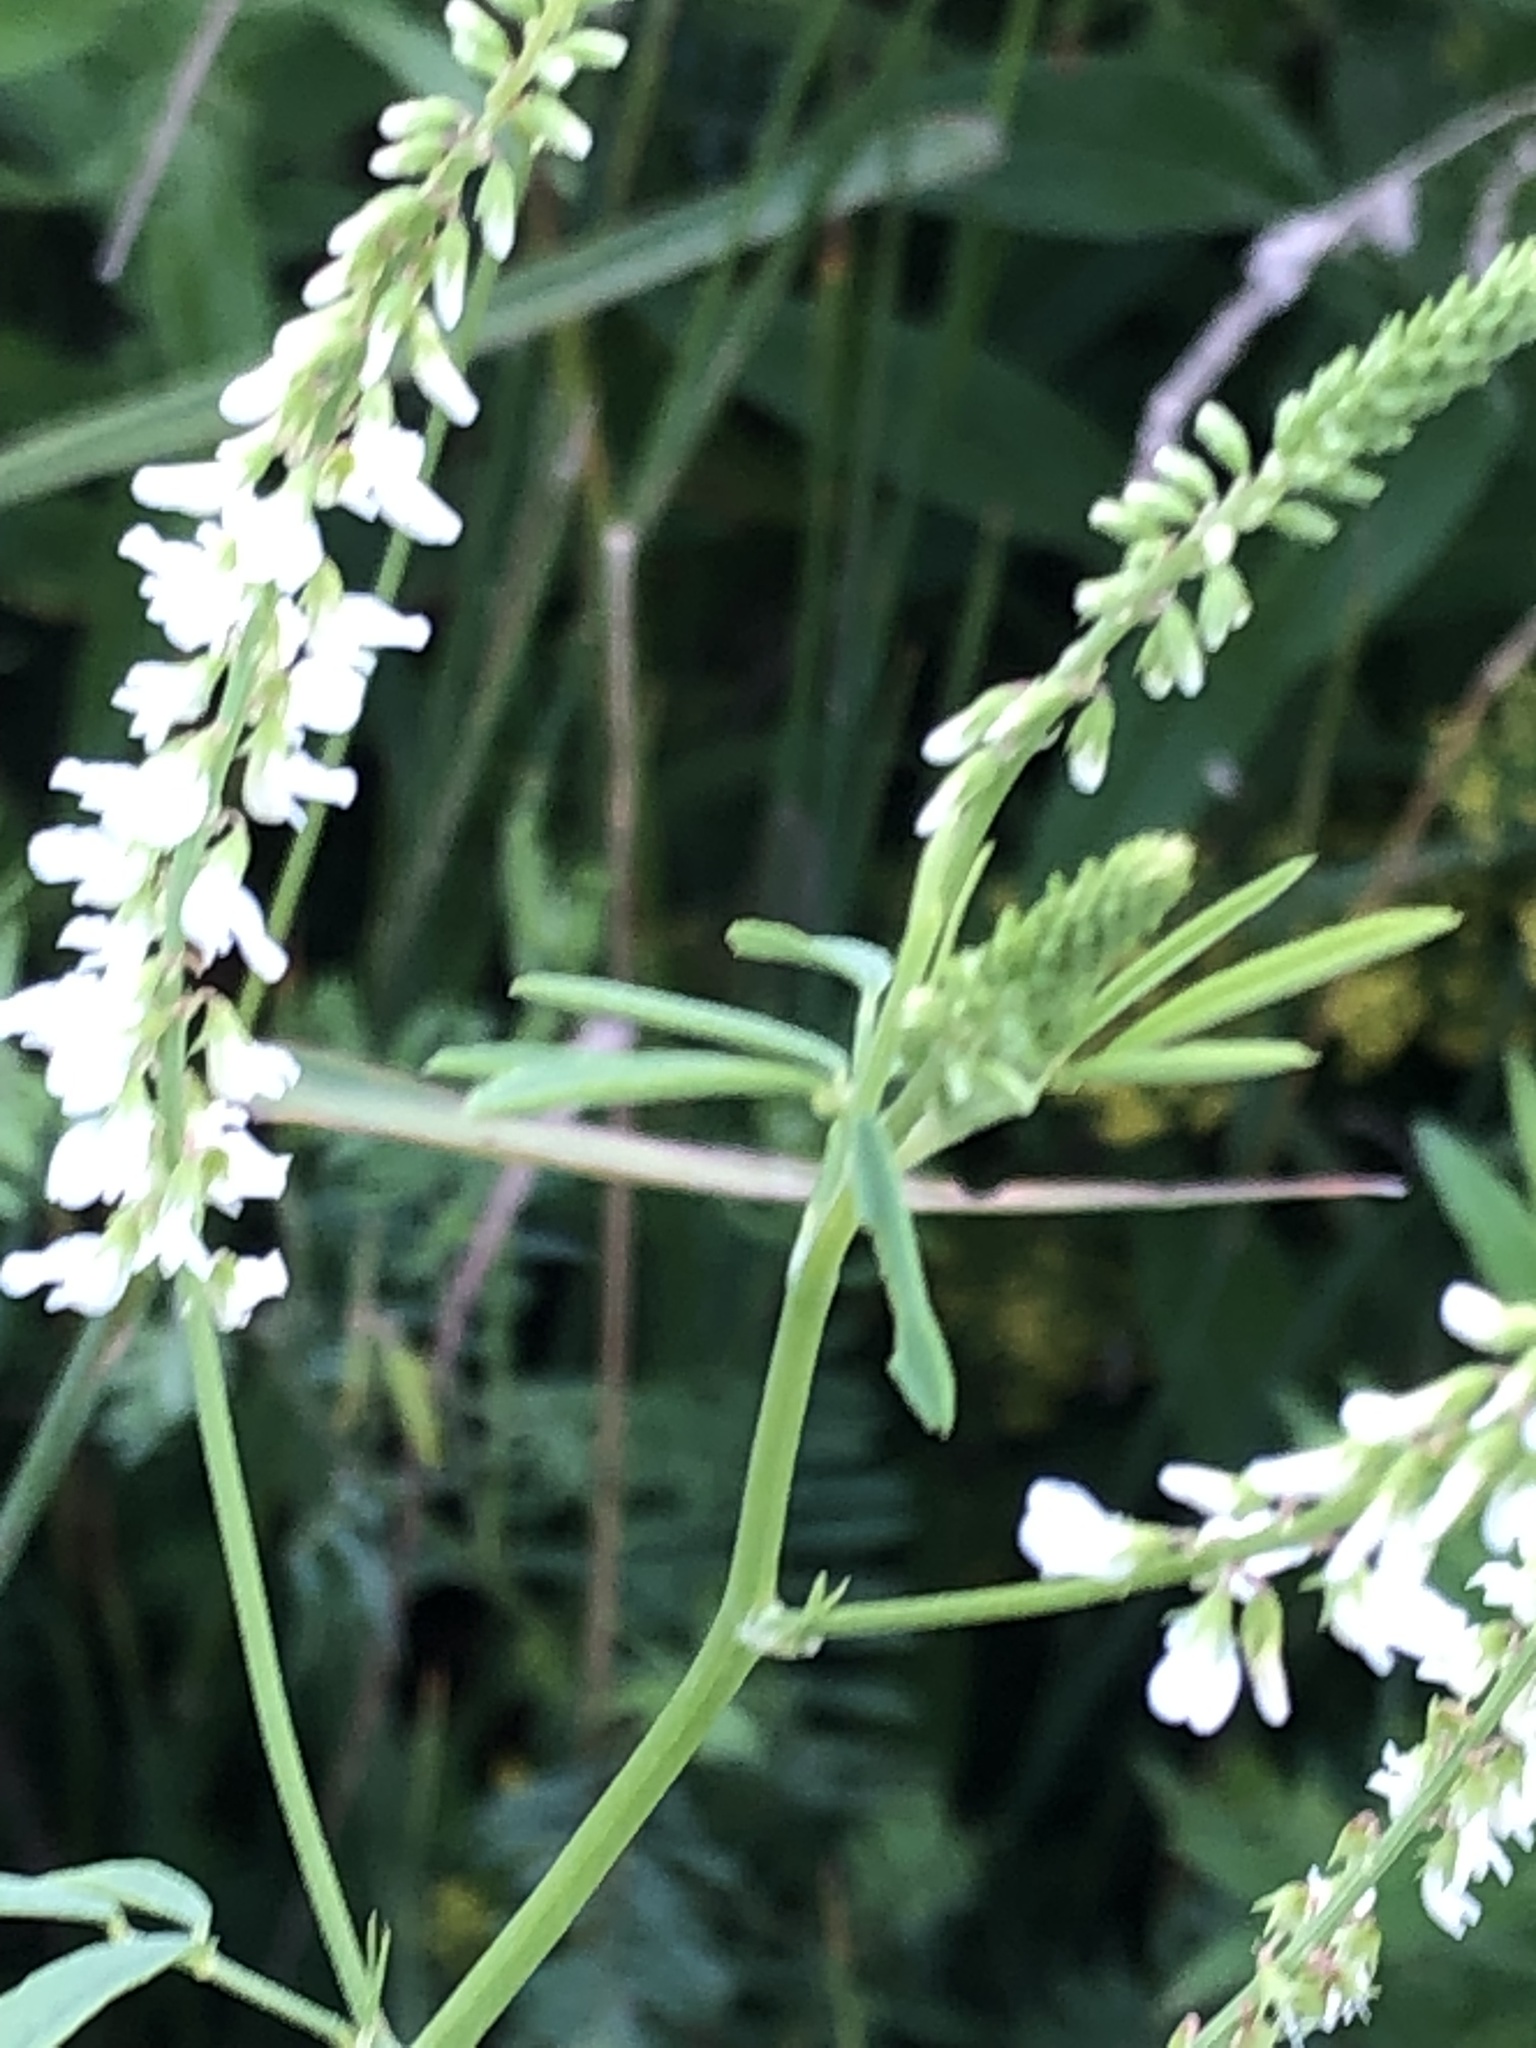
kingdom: Plantae
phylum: Tracheophyta
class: Magnoliopsida
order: Fabales
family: Fabaceae
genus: Melilotus
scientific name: Melilotus albus
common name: White melilot
